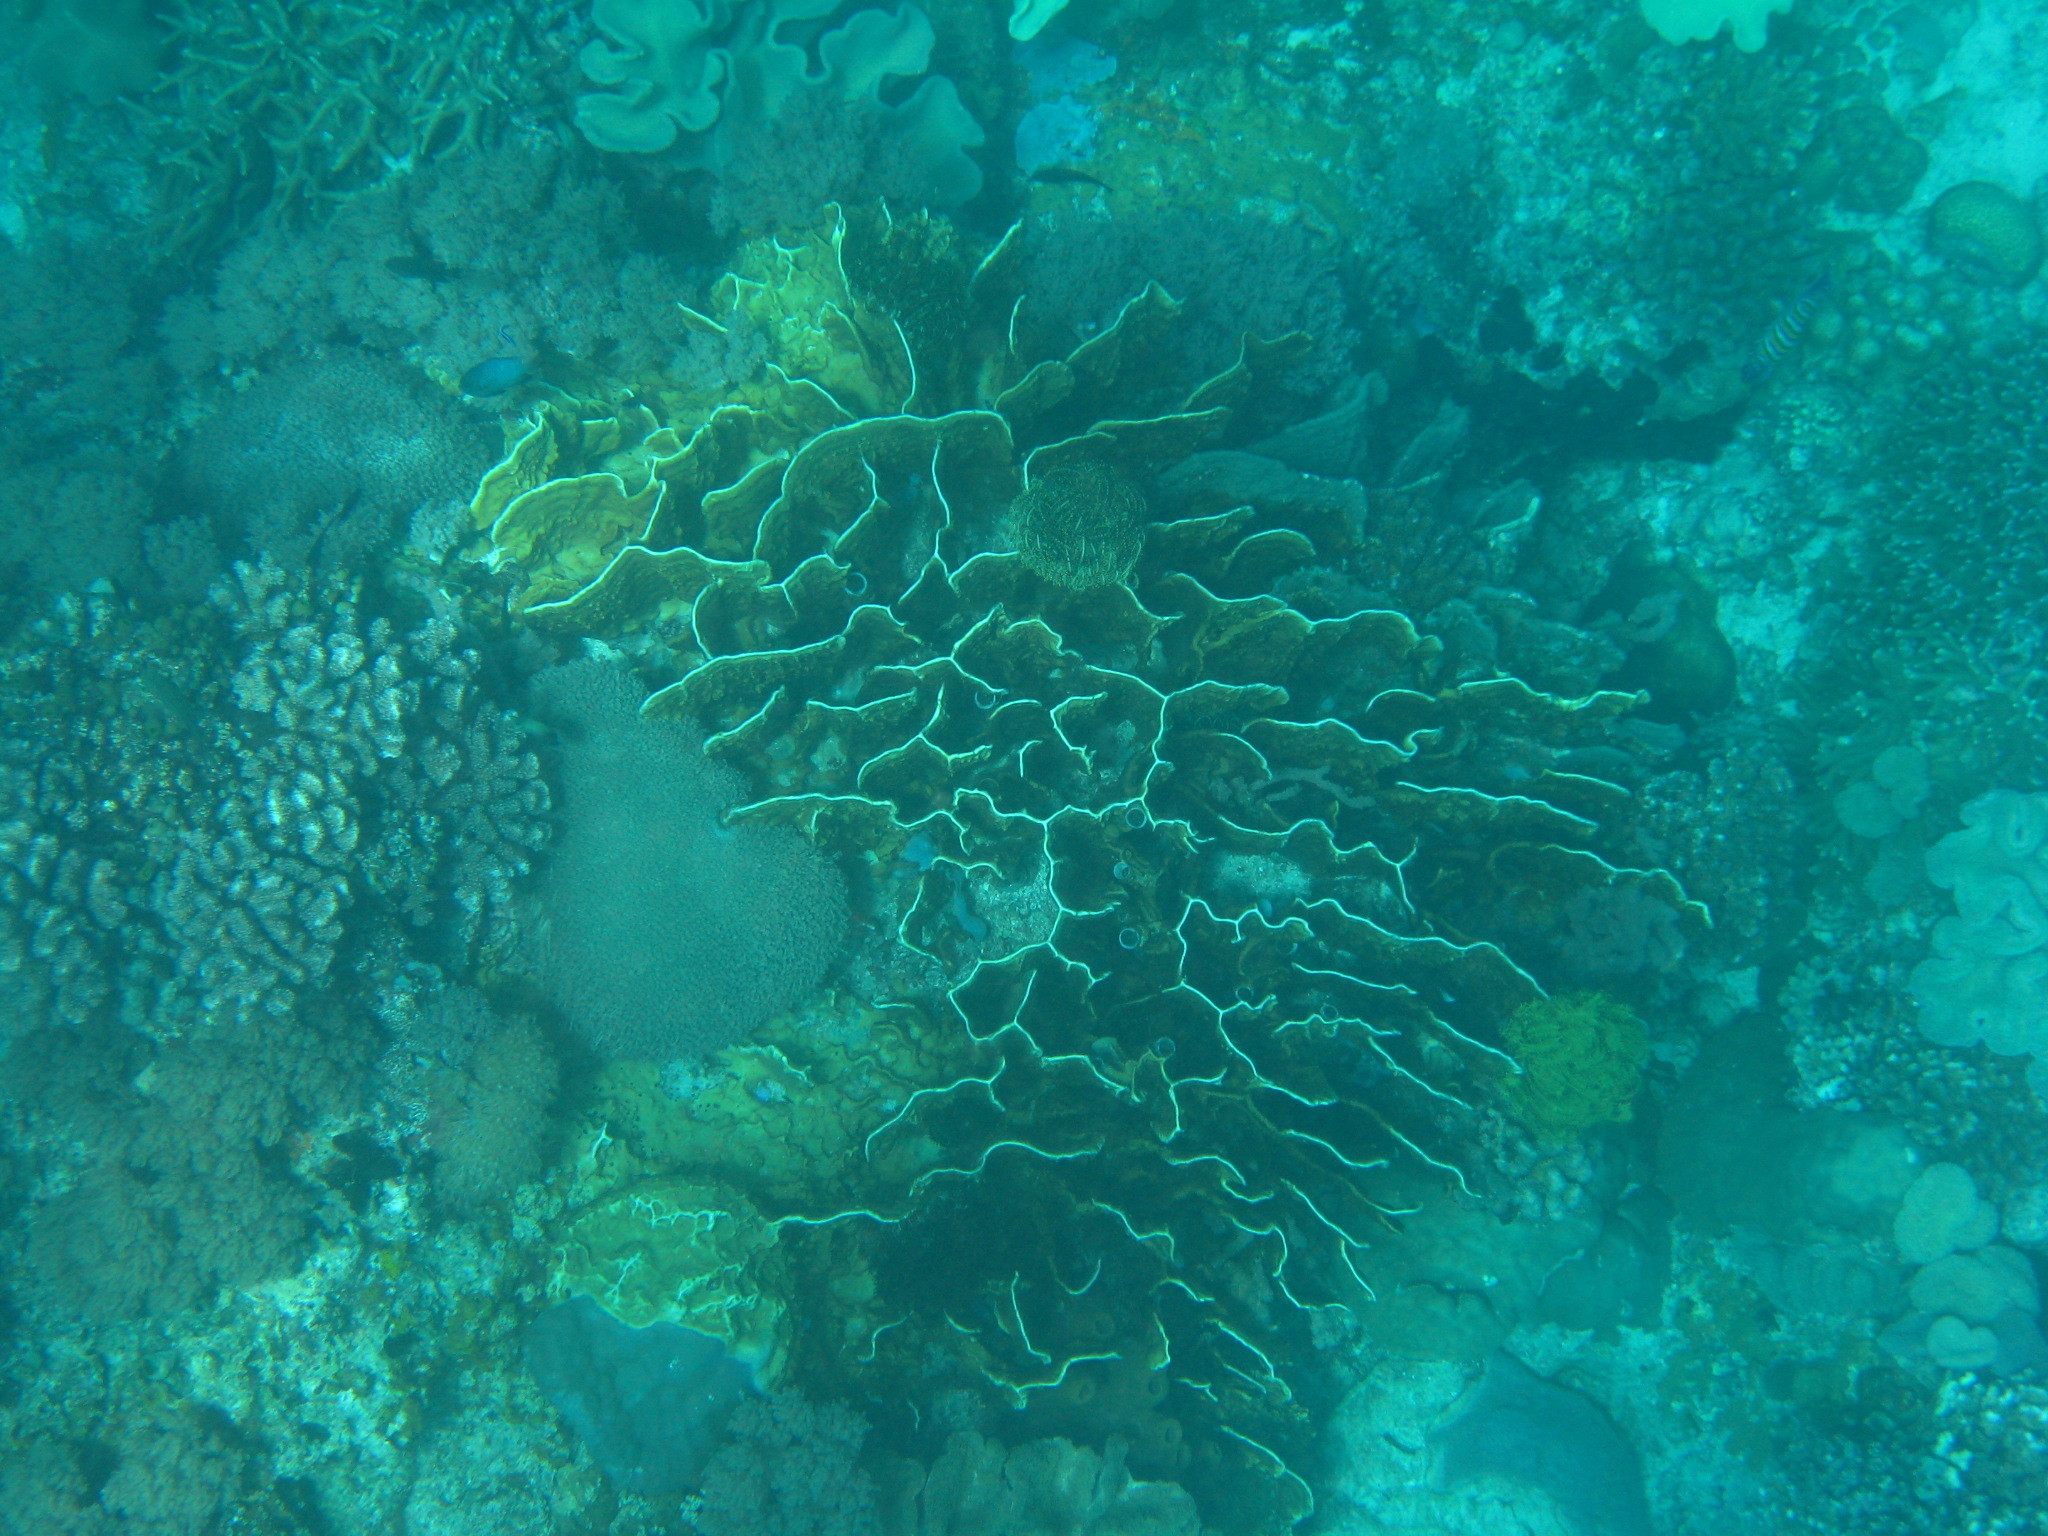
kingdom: Animalia
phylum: Cnidaria
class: Anthozoa
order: Scleralcyonacea
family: Helioporidae
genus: Heliopora
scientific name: Heliopora coerulea
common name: Blue coral
